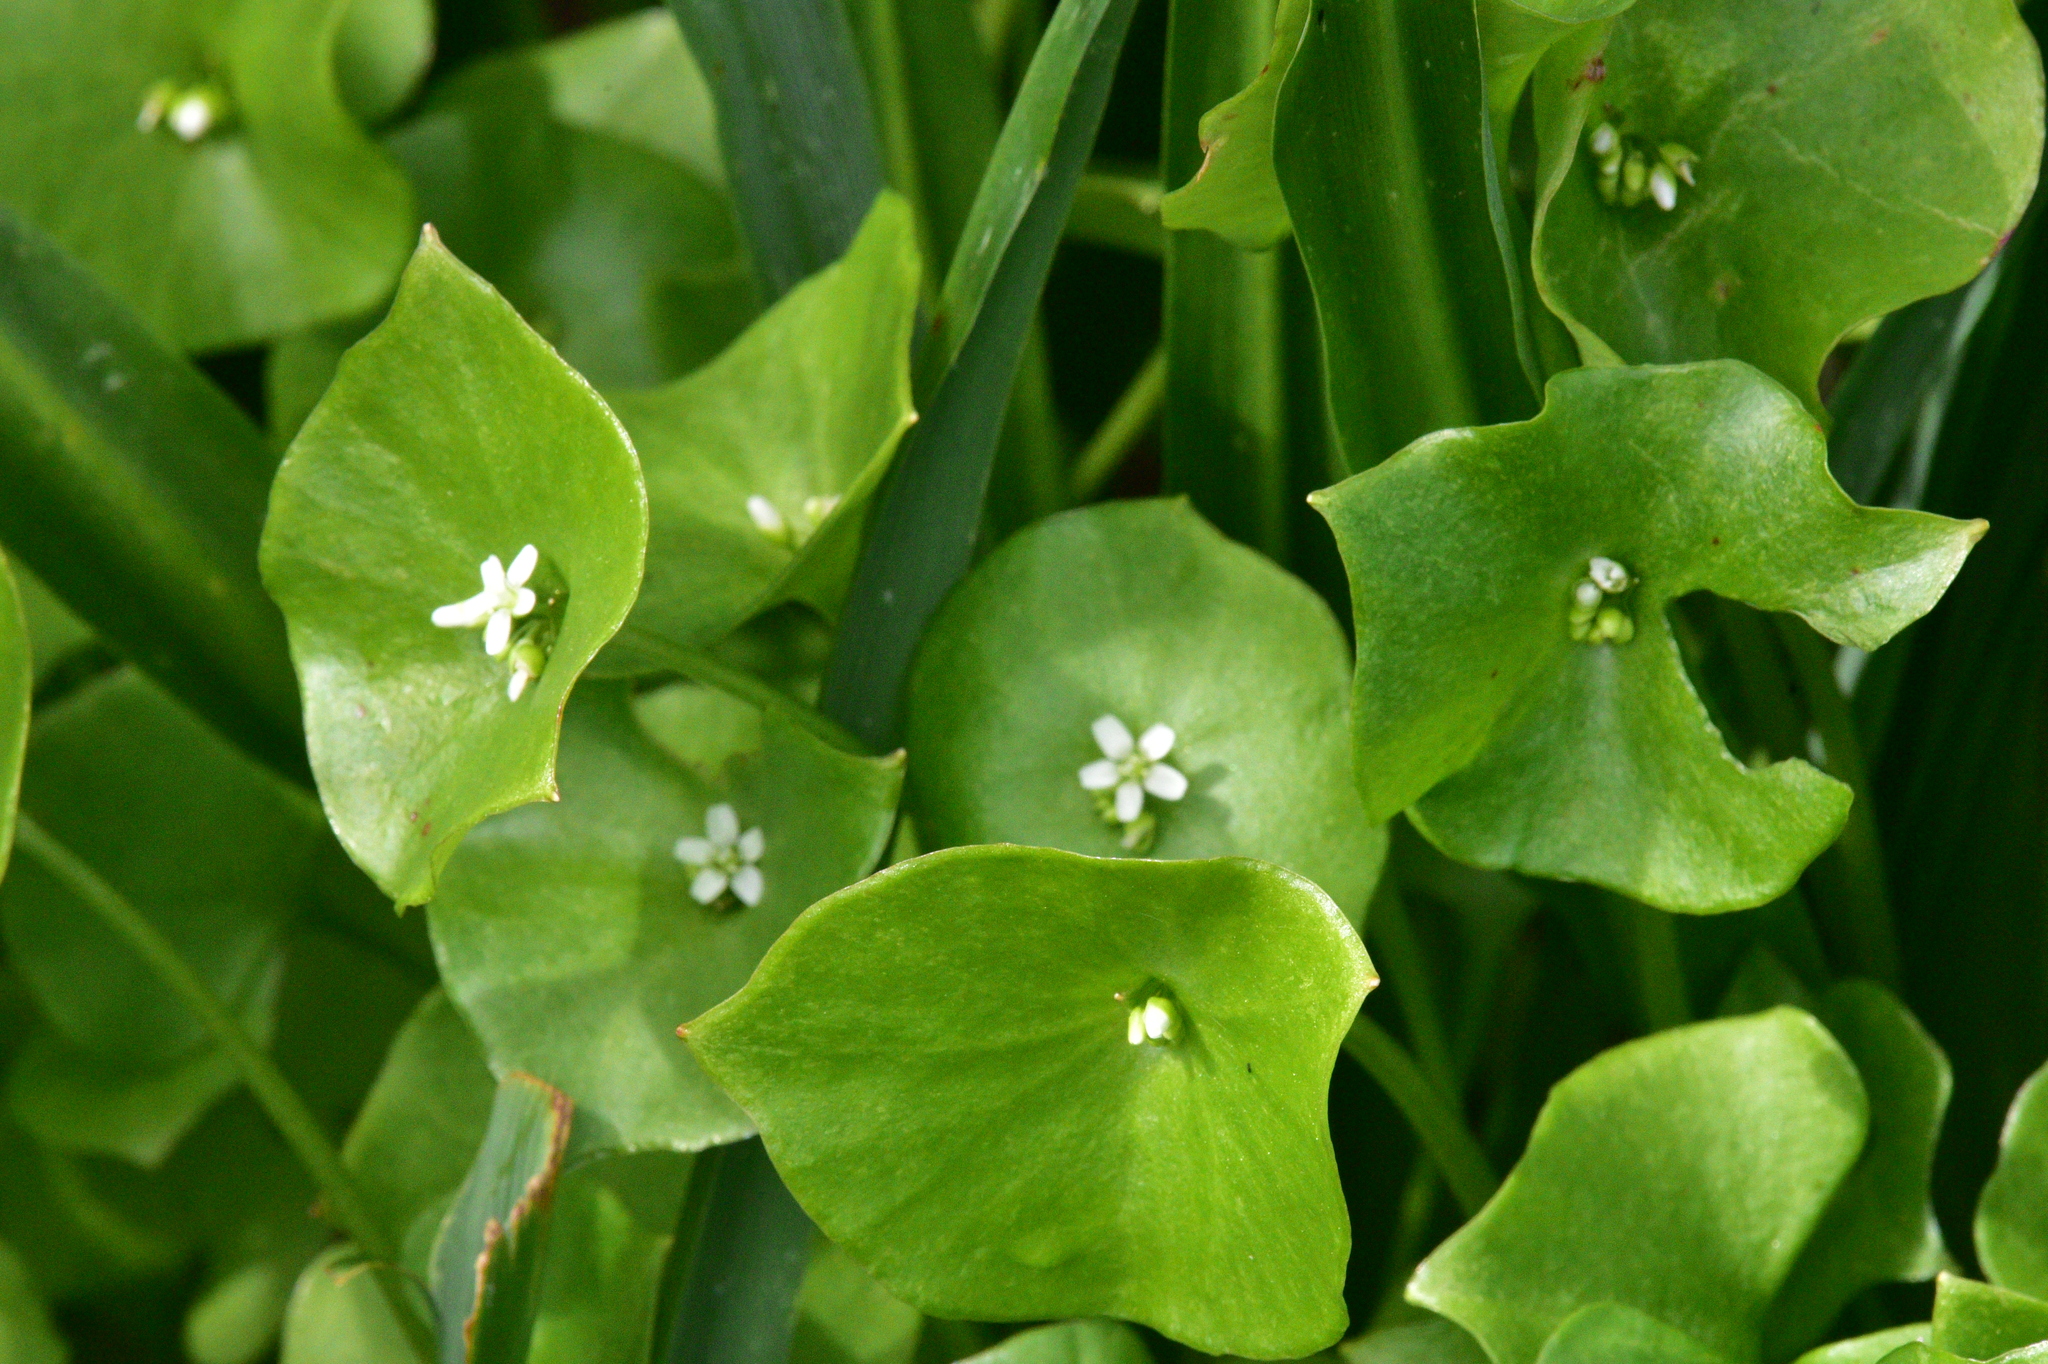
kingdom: Plantae
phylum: Tracheophyta
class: Magnoliopsida
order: Caryophyllales
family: Montiaceae
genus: Claytonia
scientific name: Claytonia perfoliata
